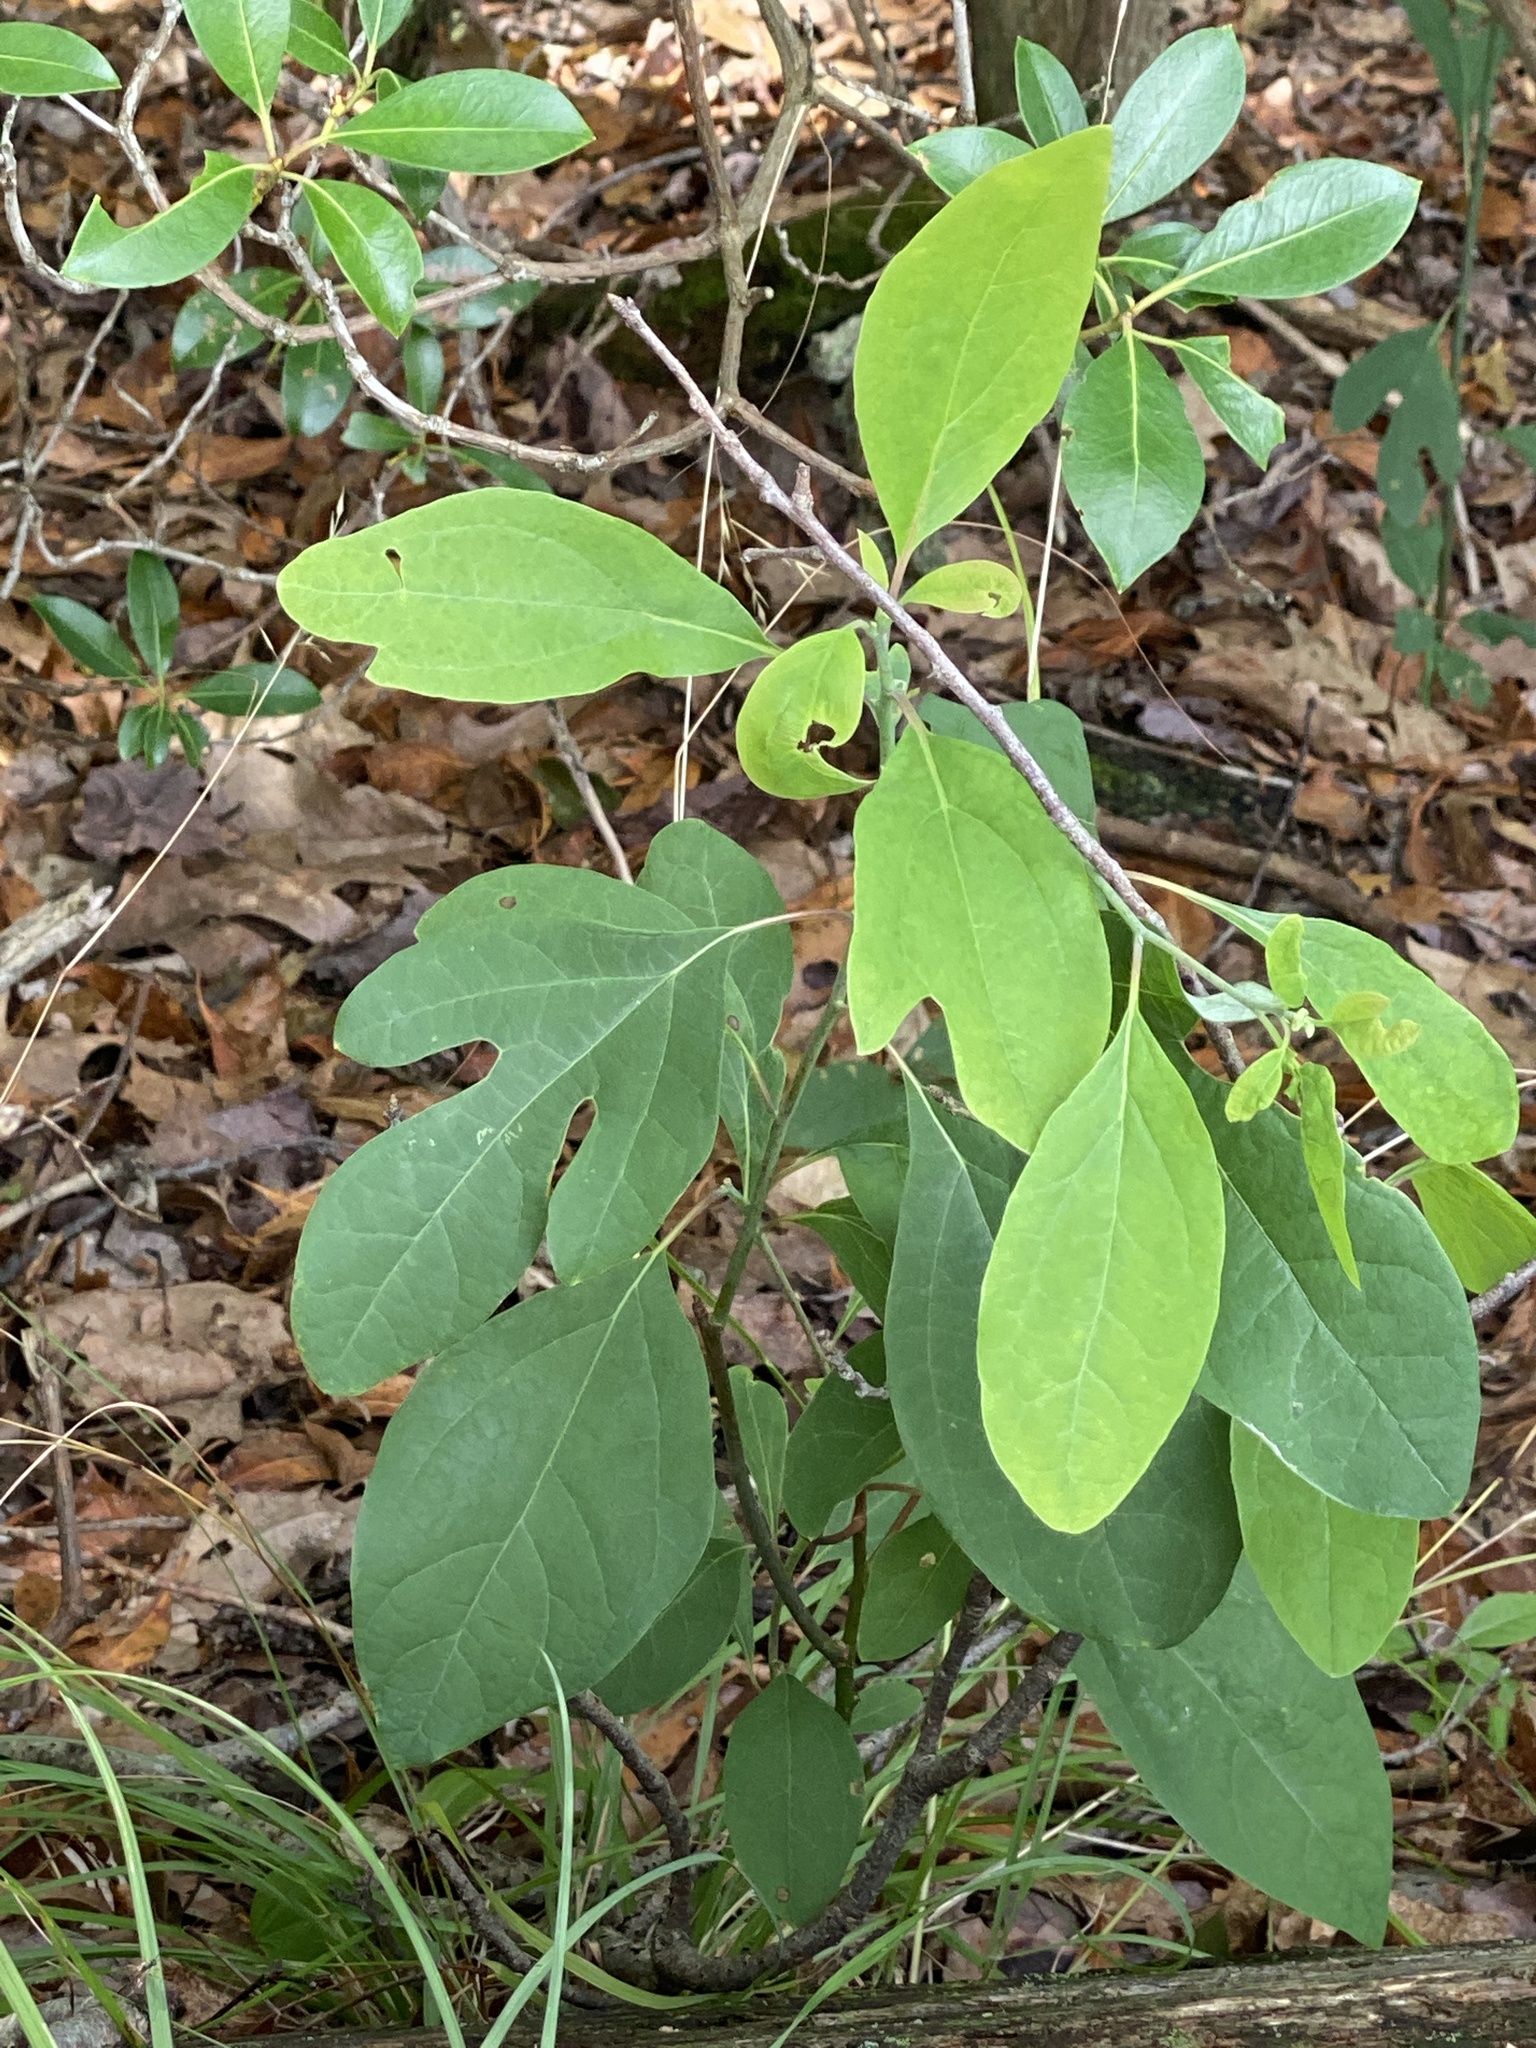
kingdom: Plantae
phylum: Tracheophyta
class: Magnoliopsida
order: Laurales
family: Lauraceae
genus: Sassafras
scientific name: Sassafras albidum
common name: Sassafras
